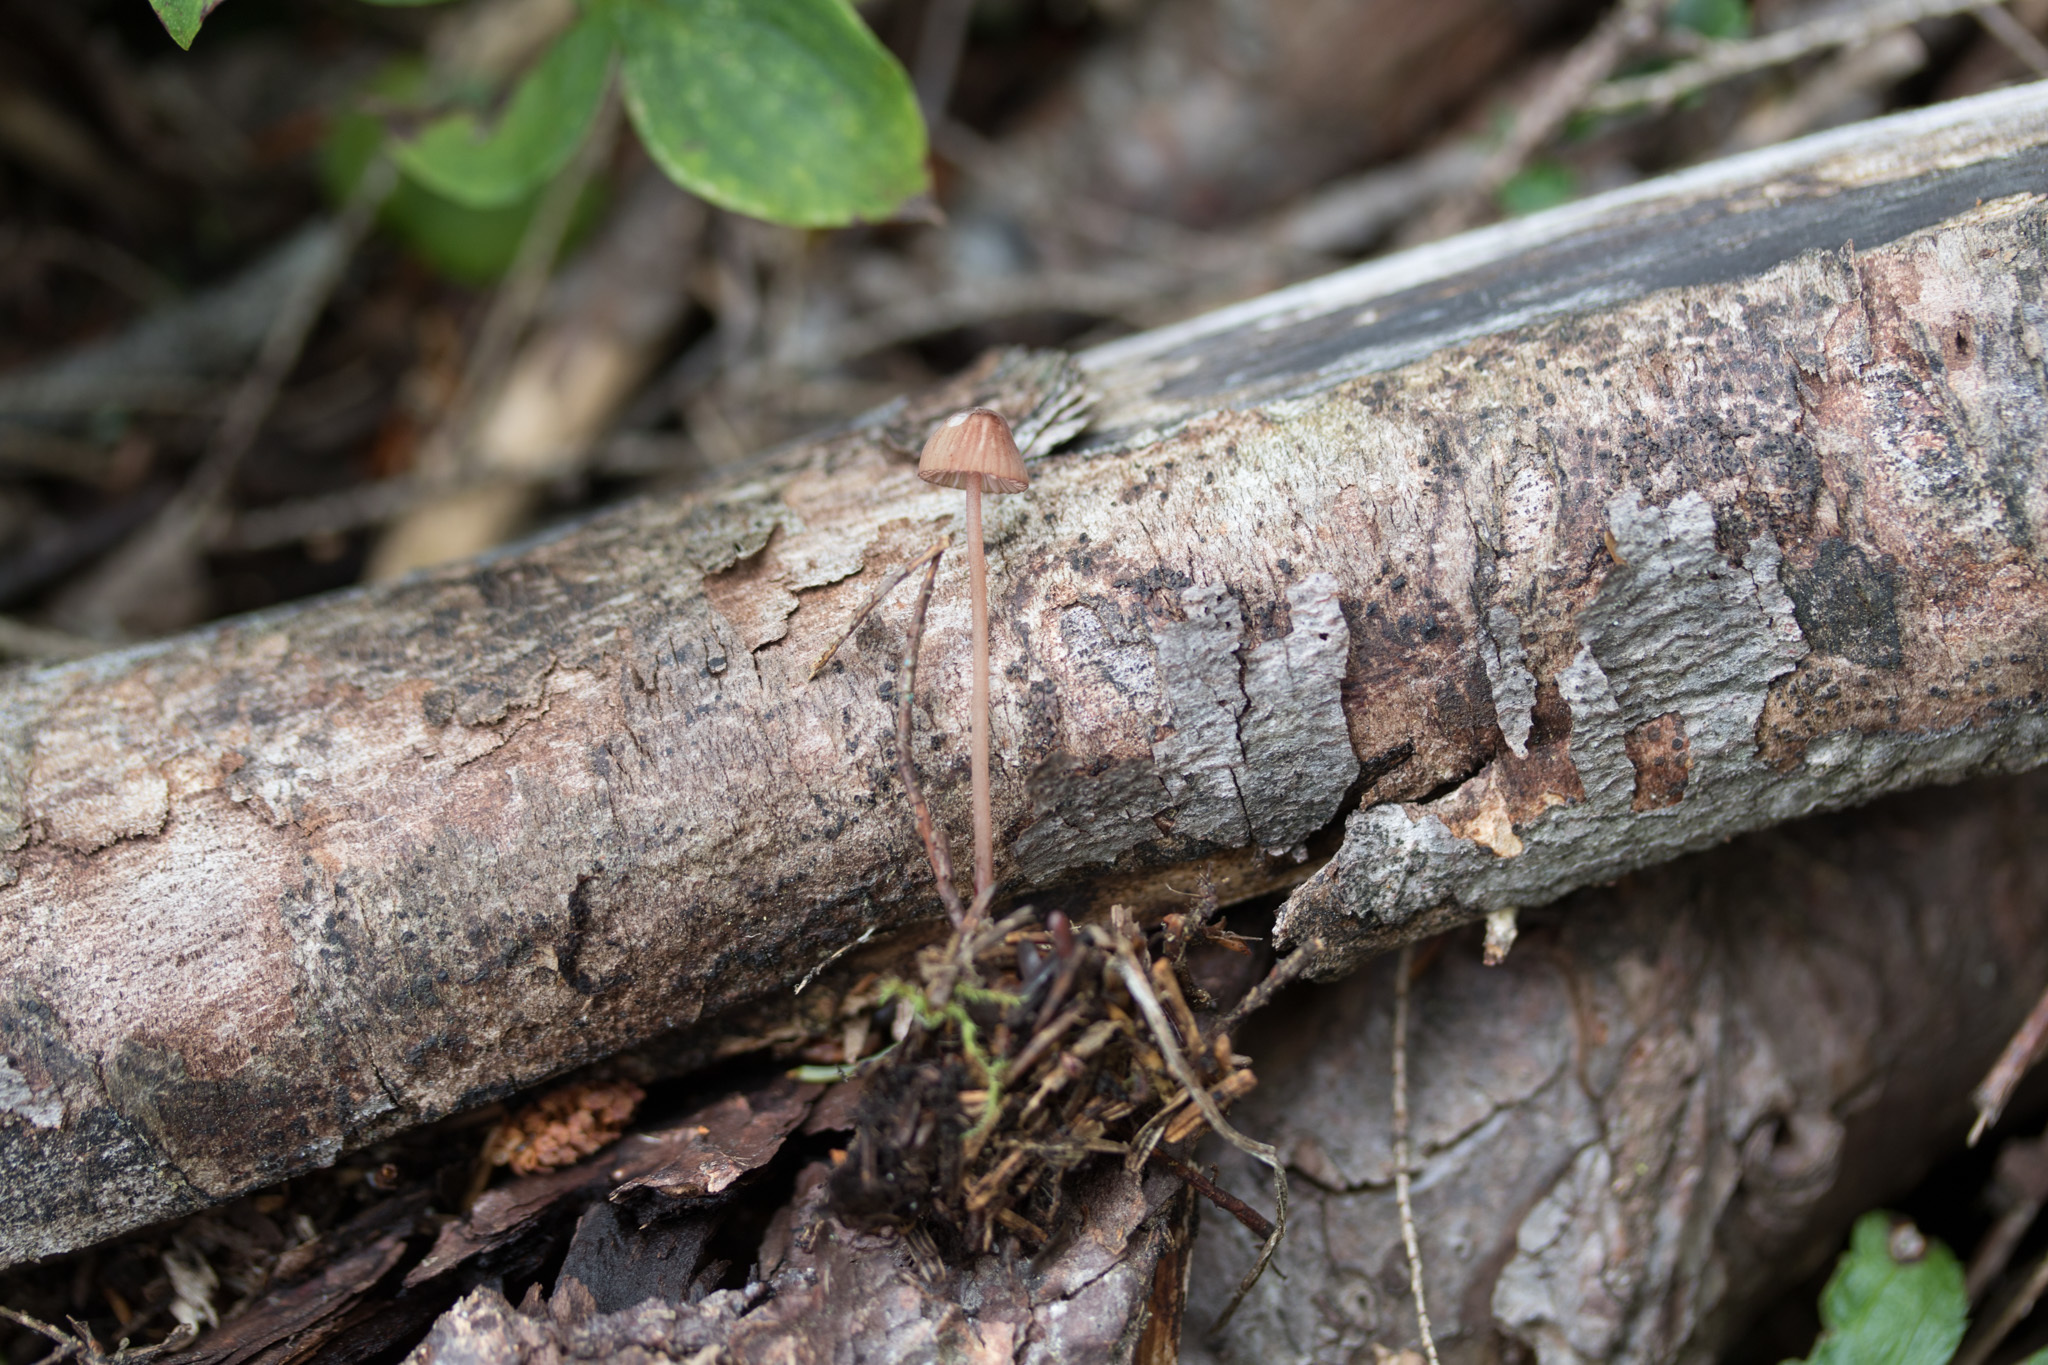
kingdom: Fungi
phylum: Basidiomycota
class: Agaricomycetes
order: Agaricales
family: Mycenaceae
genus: Mycena
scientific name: Mycena haematopus
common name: Burgundydrop bonnet
